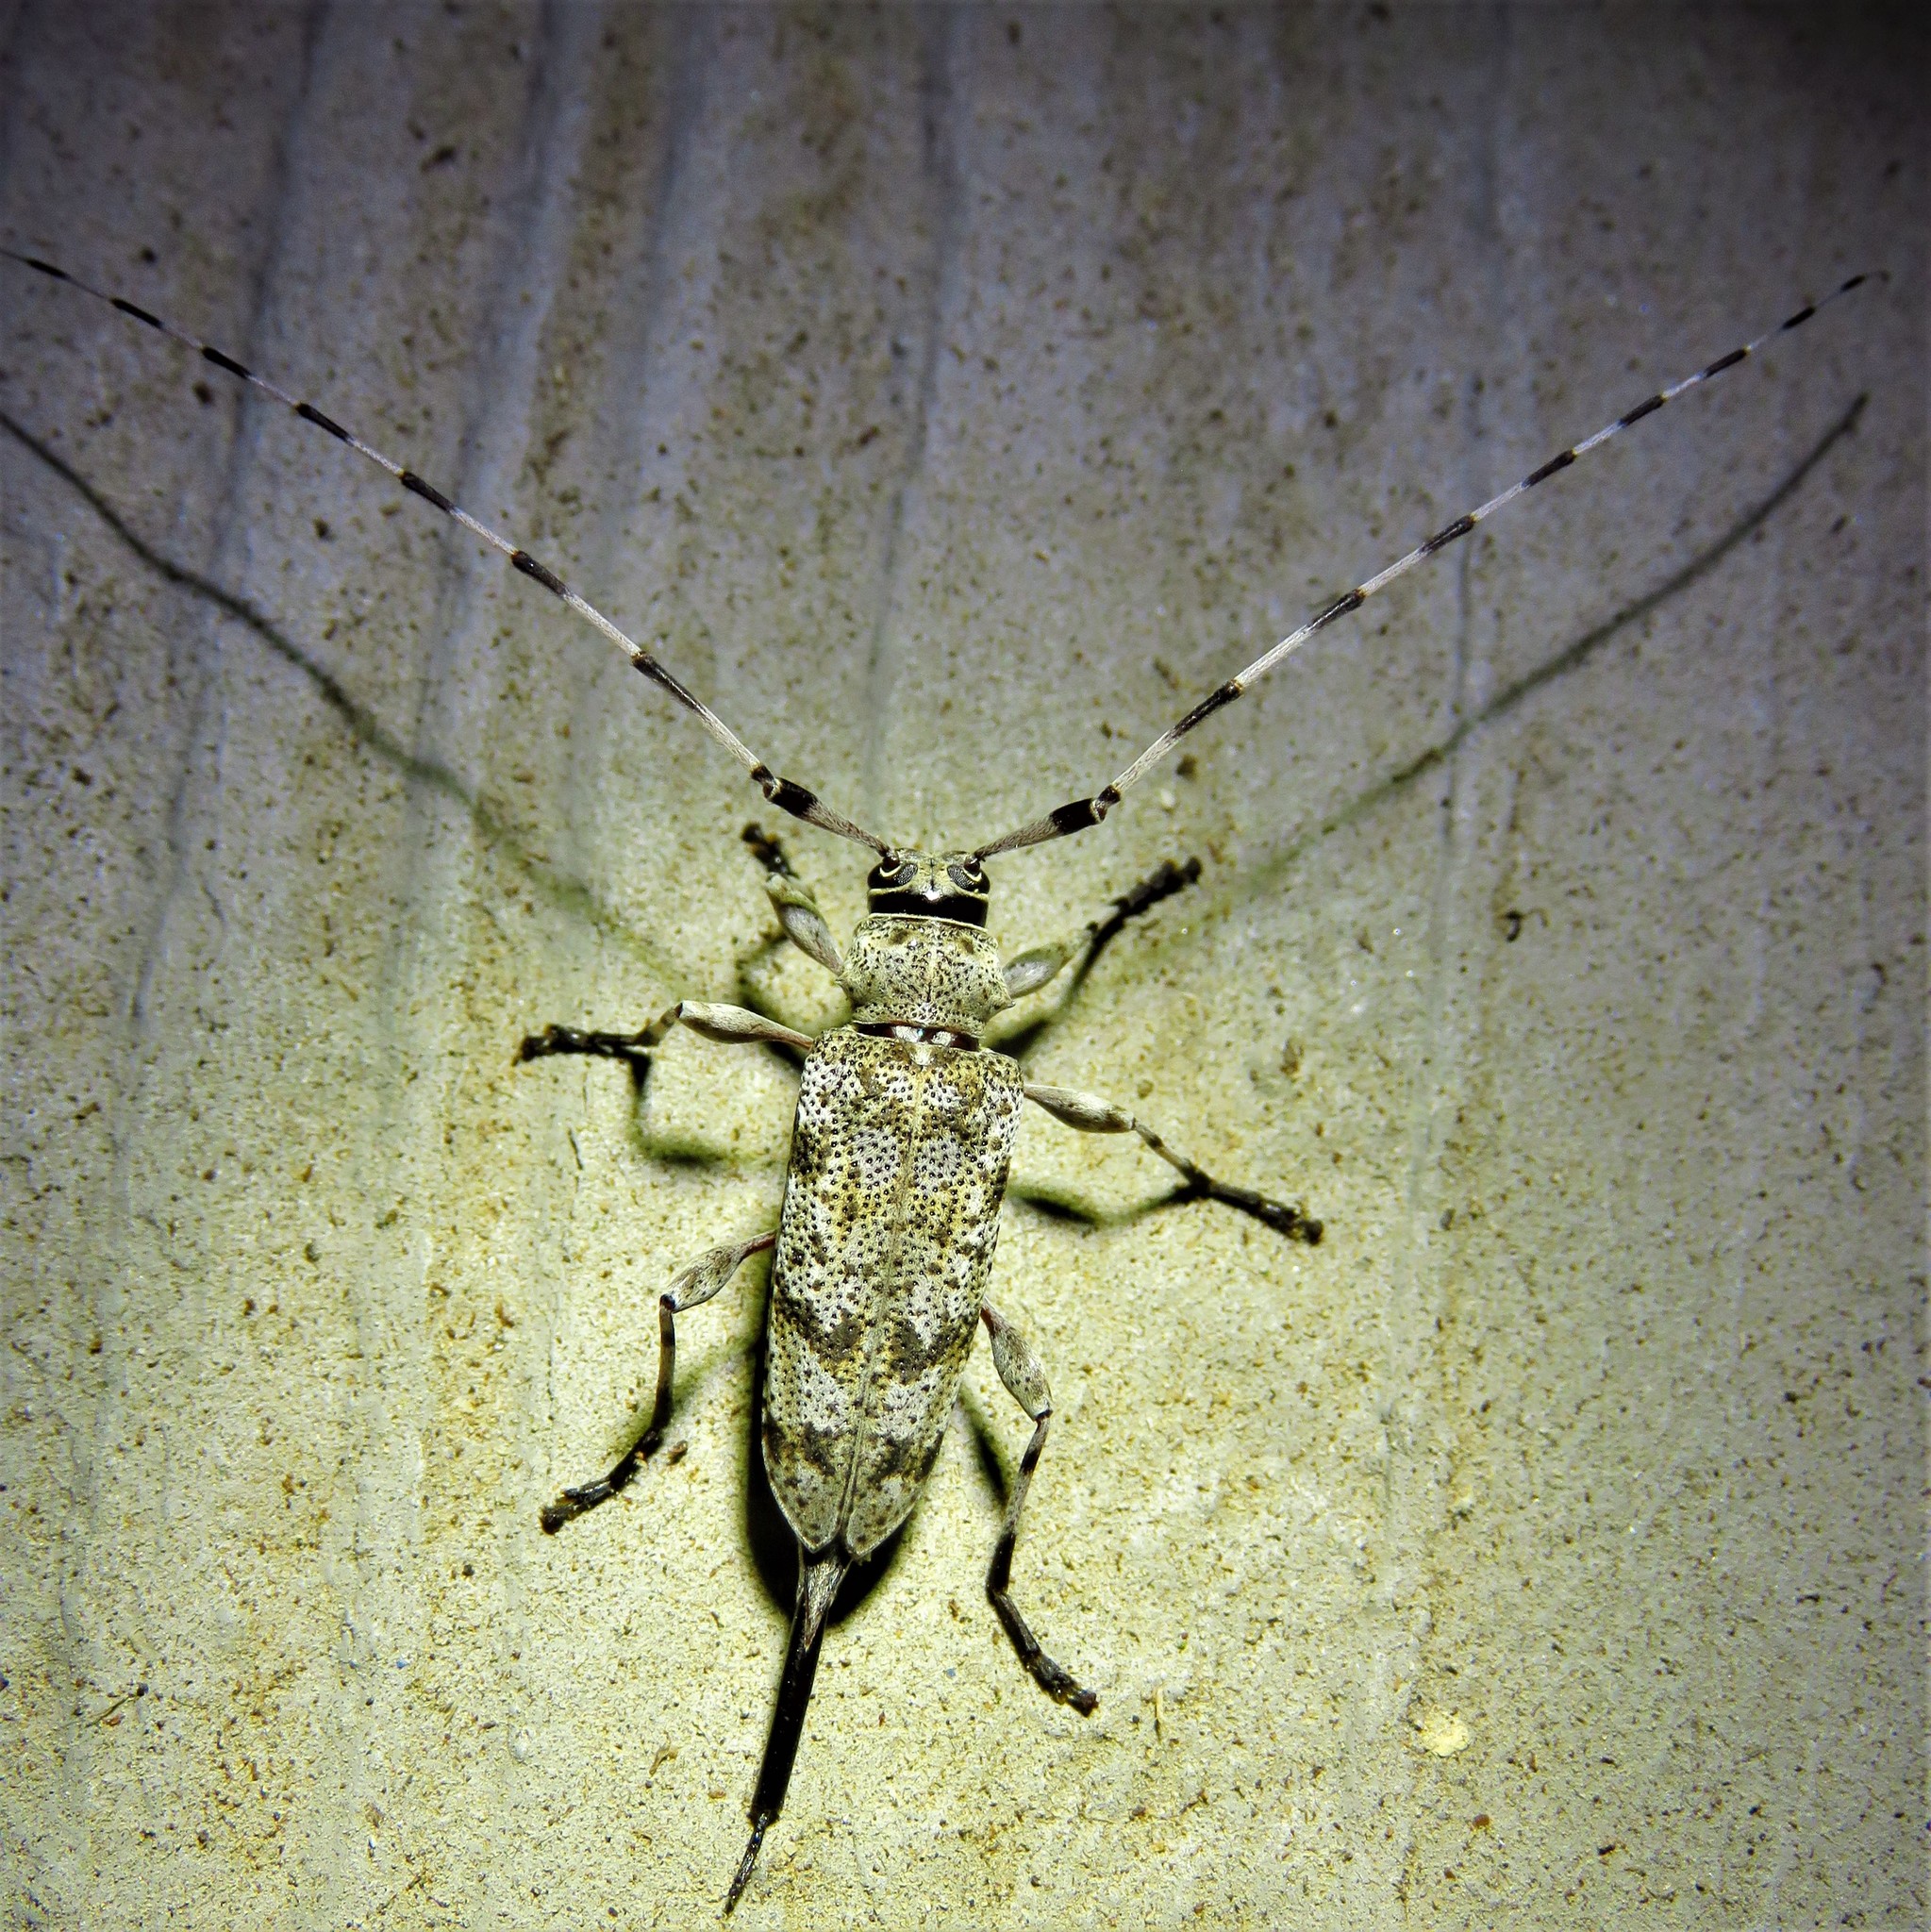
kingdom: Animalia
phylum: Arthropoda
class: Insecta
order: Coleoptera
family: Cerambycidae
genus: Acanthocinus
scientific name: Acanthocinus obsoletus
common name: Roundheaded borer
